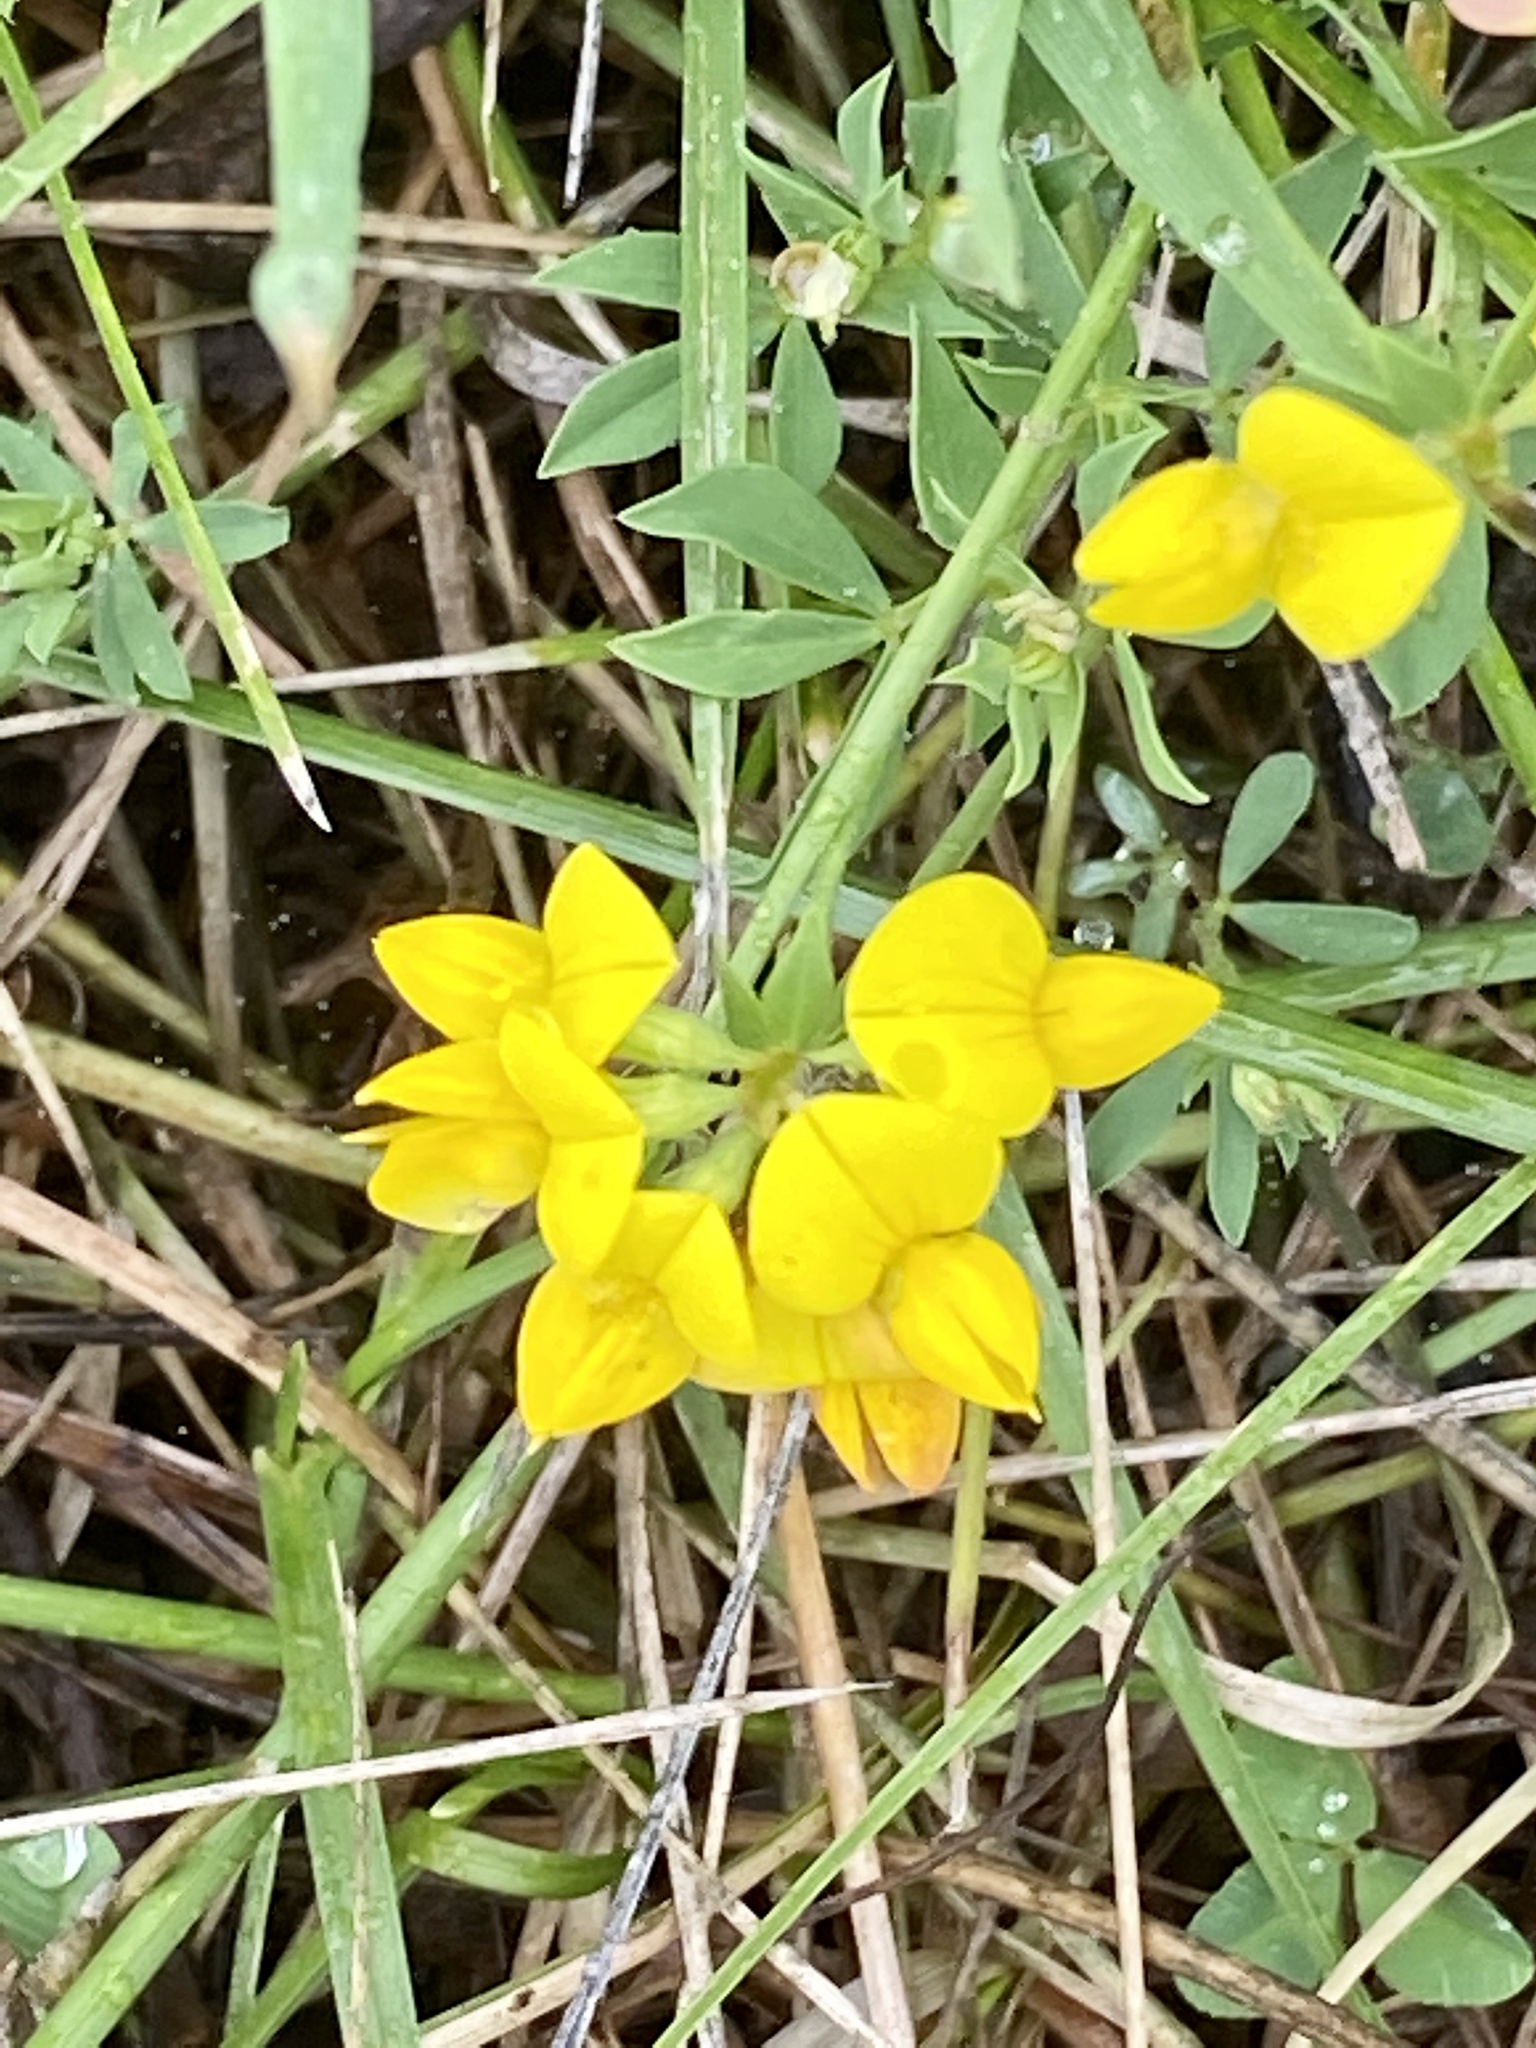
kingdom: Plantae
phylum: Tracheophyta
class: Magnoliopsida
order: Fabales
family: Fabaceae
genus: Lotus
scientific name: Lotus corniculatus
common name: Common bird's-foot-trefoil
